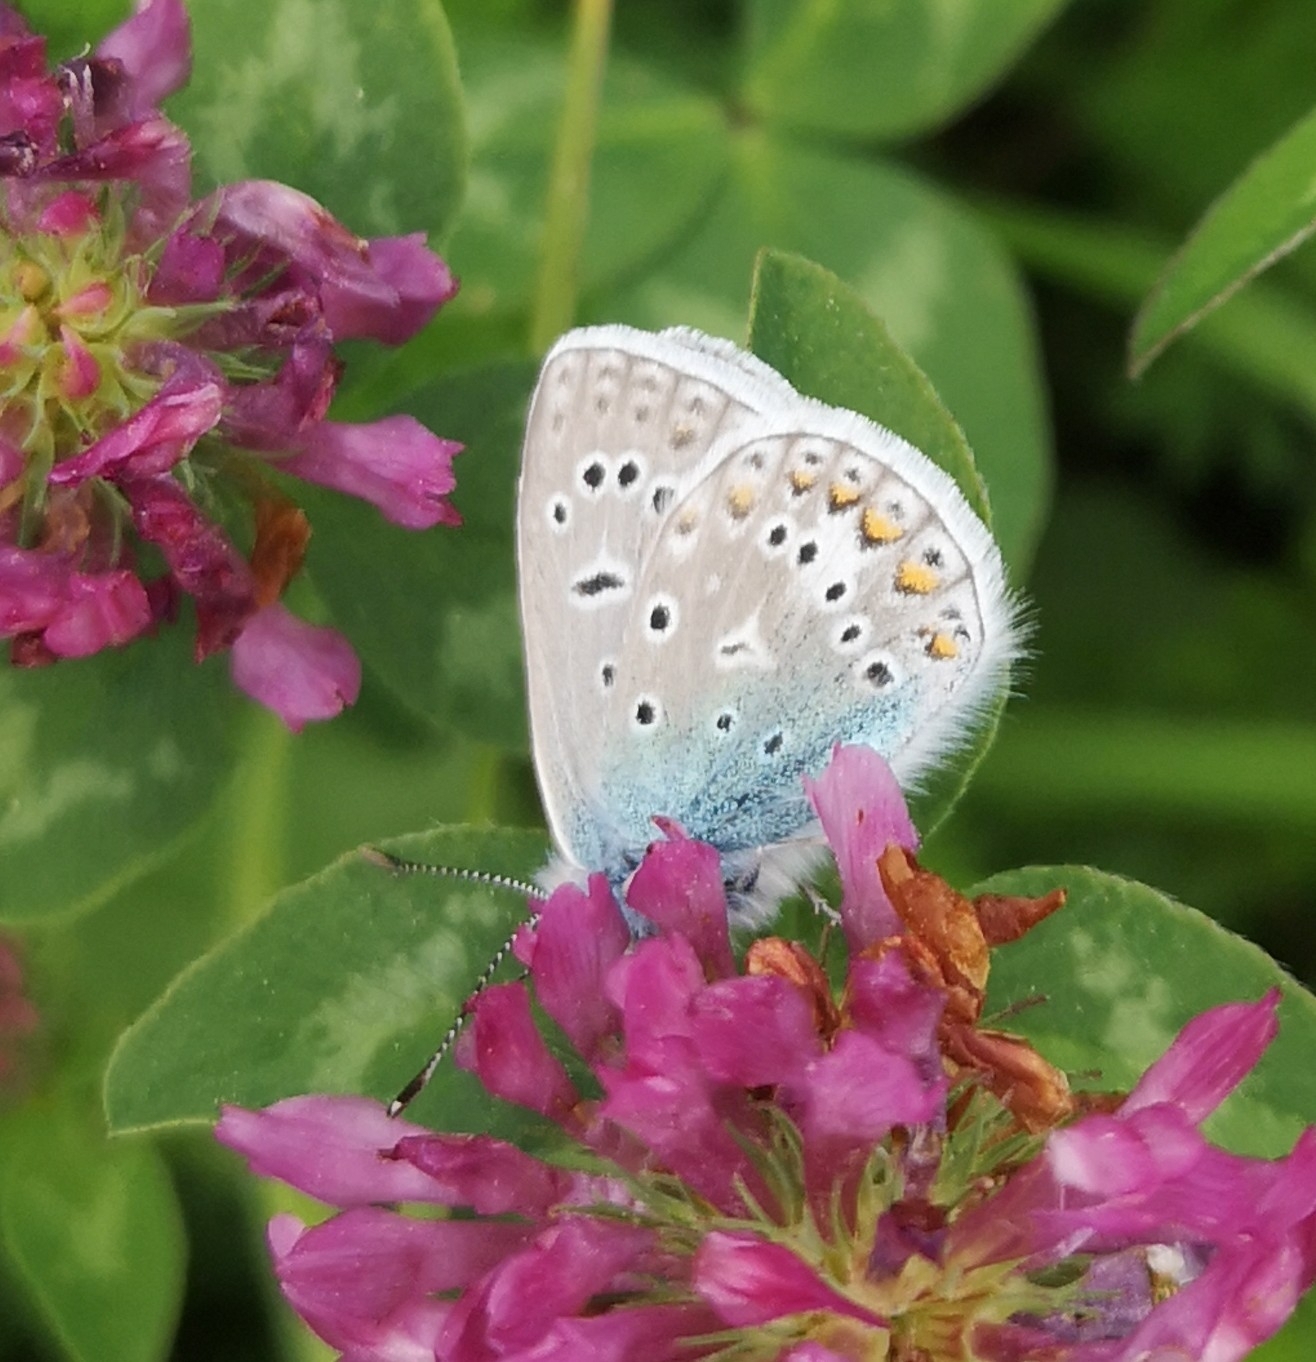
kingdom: Animalia
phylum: Arthropoda
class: Insecta
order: Lepidoptera
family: Lycaenidae
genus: Polyommatus
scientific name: Polyommatus icarus
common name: Common blue
